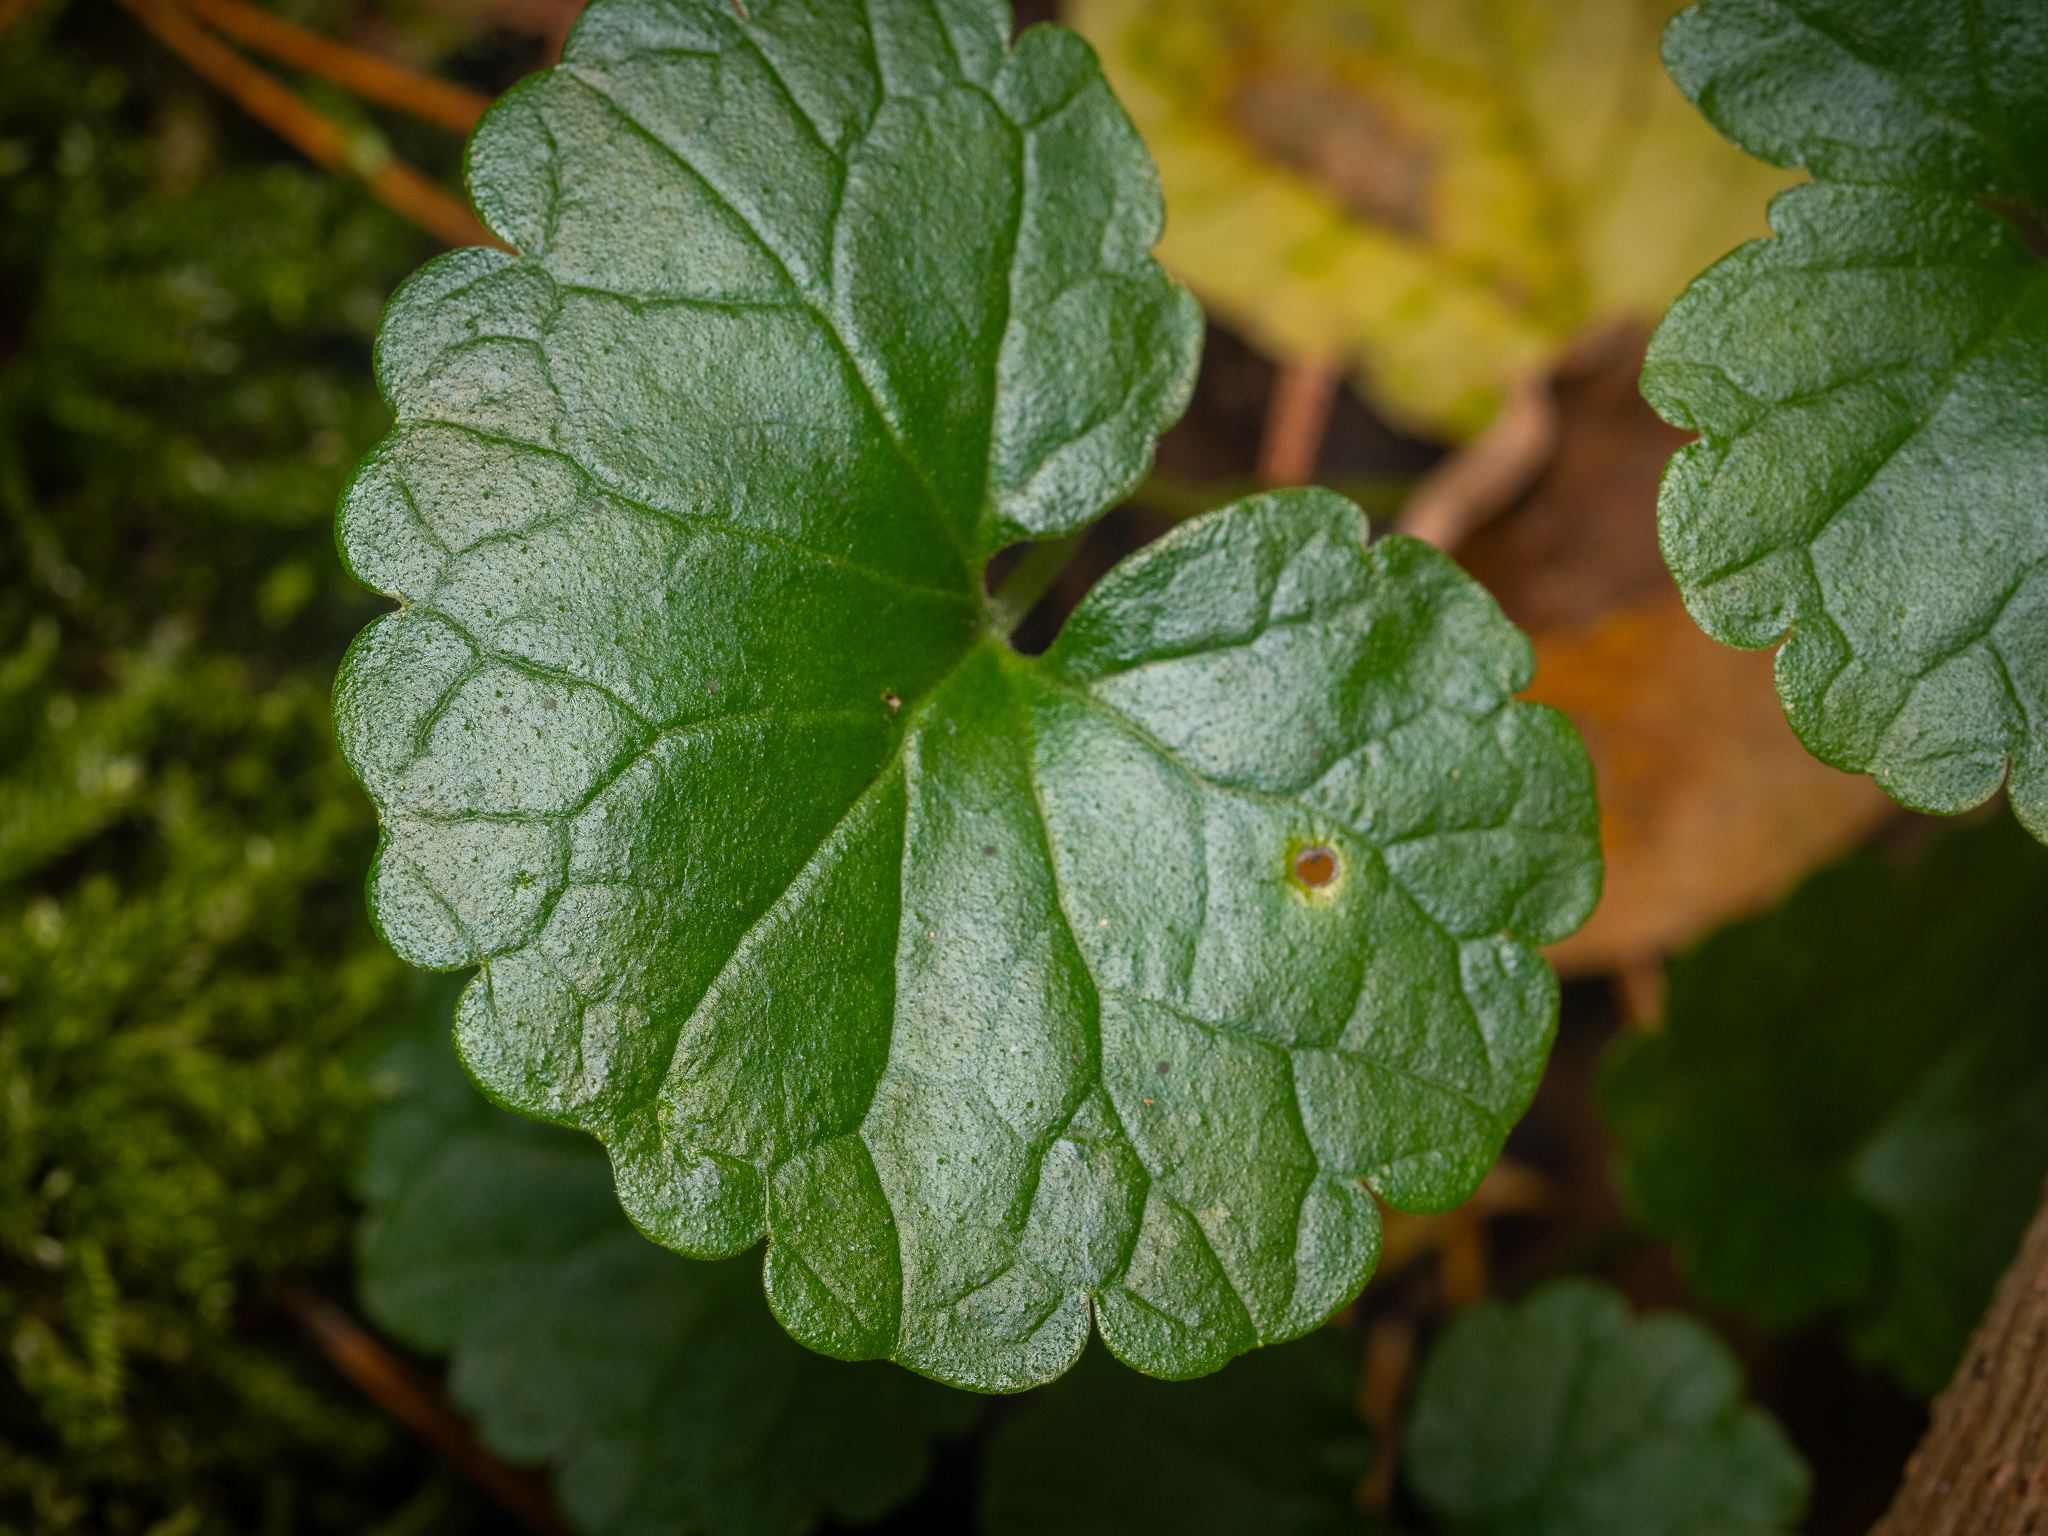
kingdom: Plantae
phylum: Tracheophyta
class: Magnoliopsida
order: Lamiales
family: Lamiaceae
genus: Glechoma
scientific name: Glechoma hederacea
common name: Ground ivy
